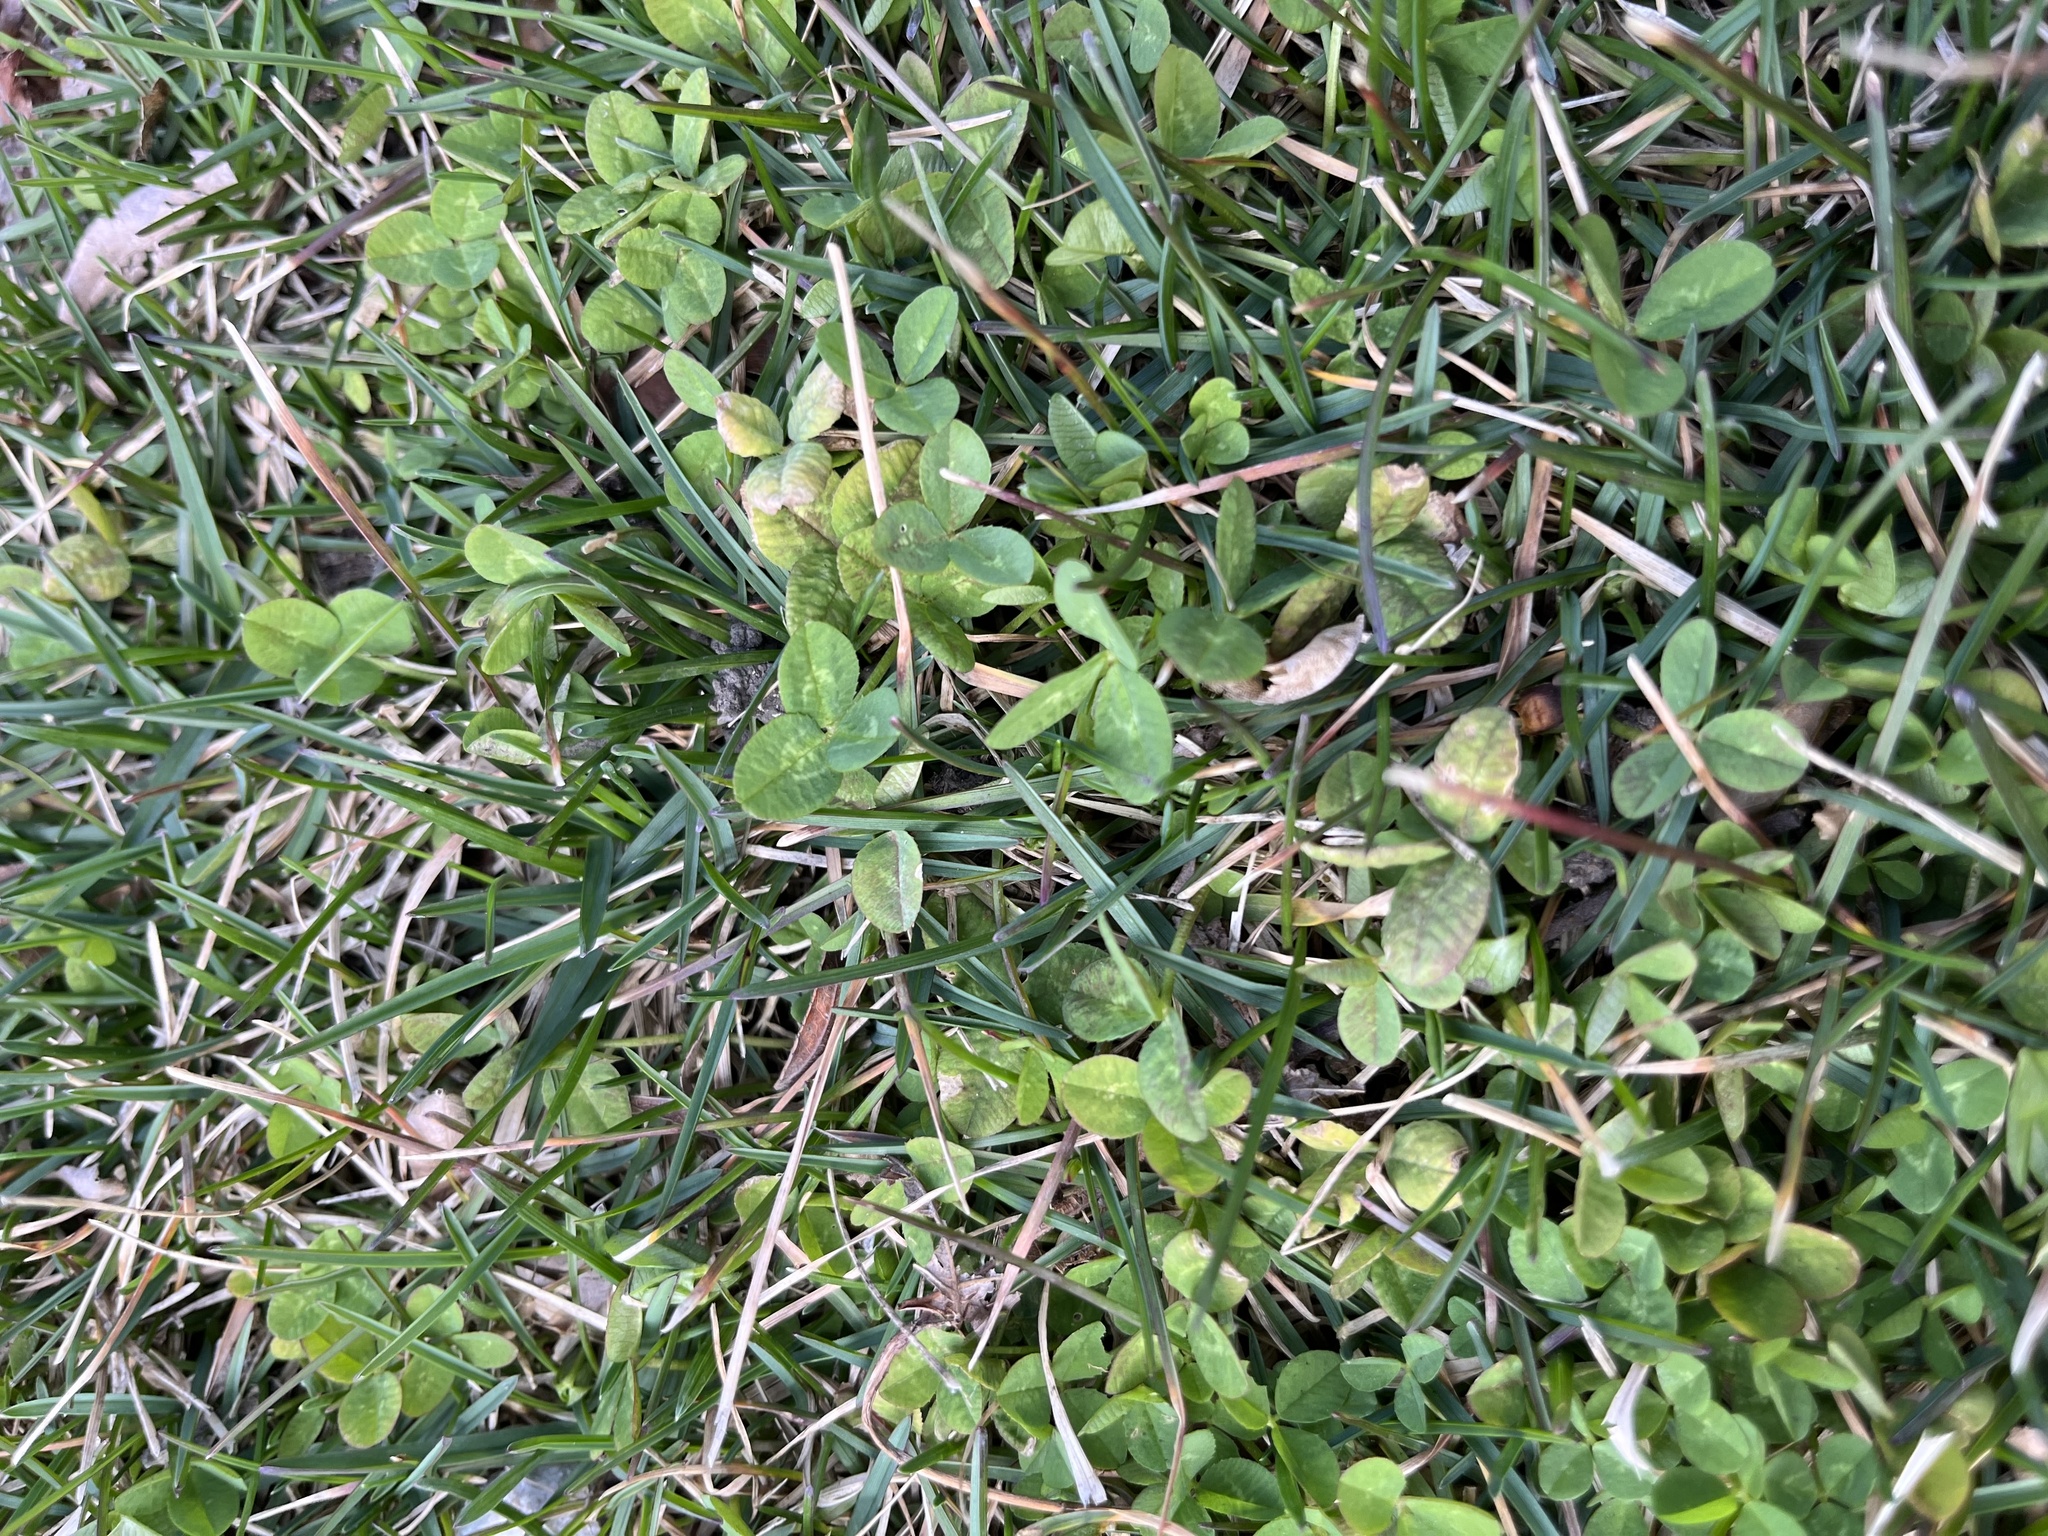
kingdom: Plantae
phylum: Tracheophyta
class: Magnoliopsida
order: Fabales
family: Fabaceae
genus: Trifolium
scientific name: Trifolium repens
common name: White clover
